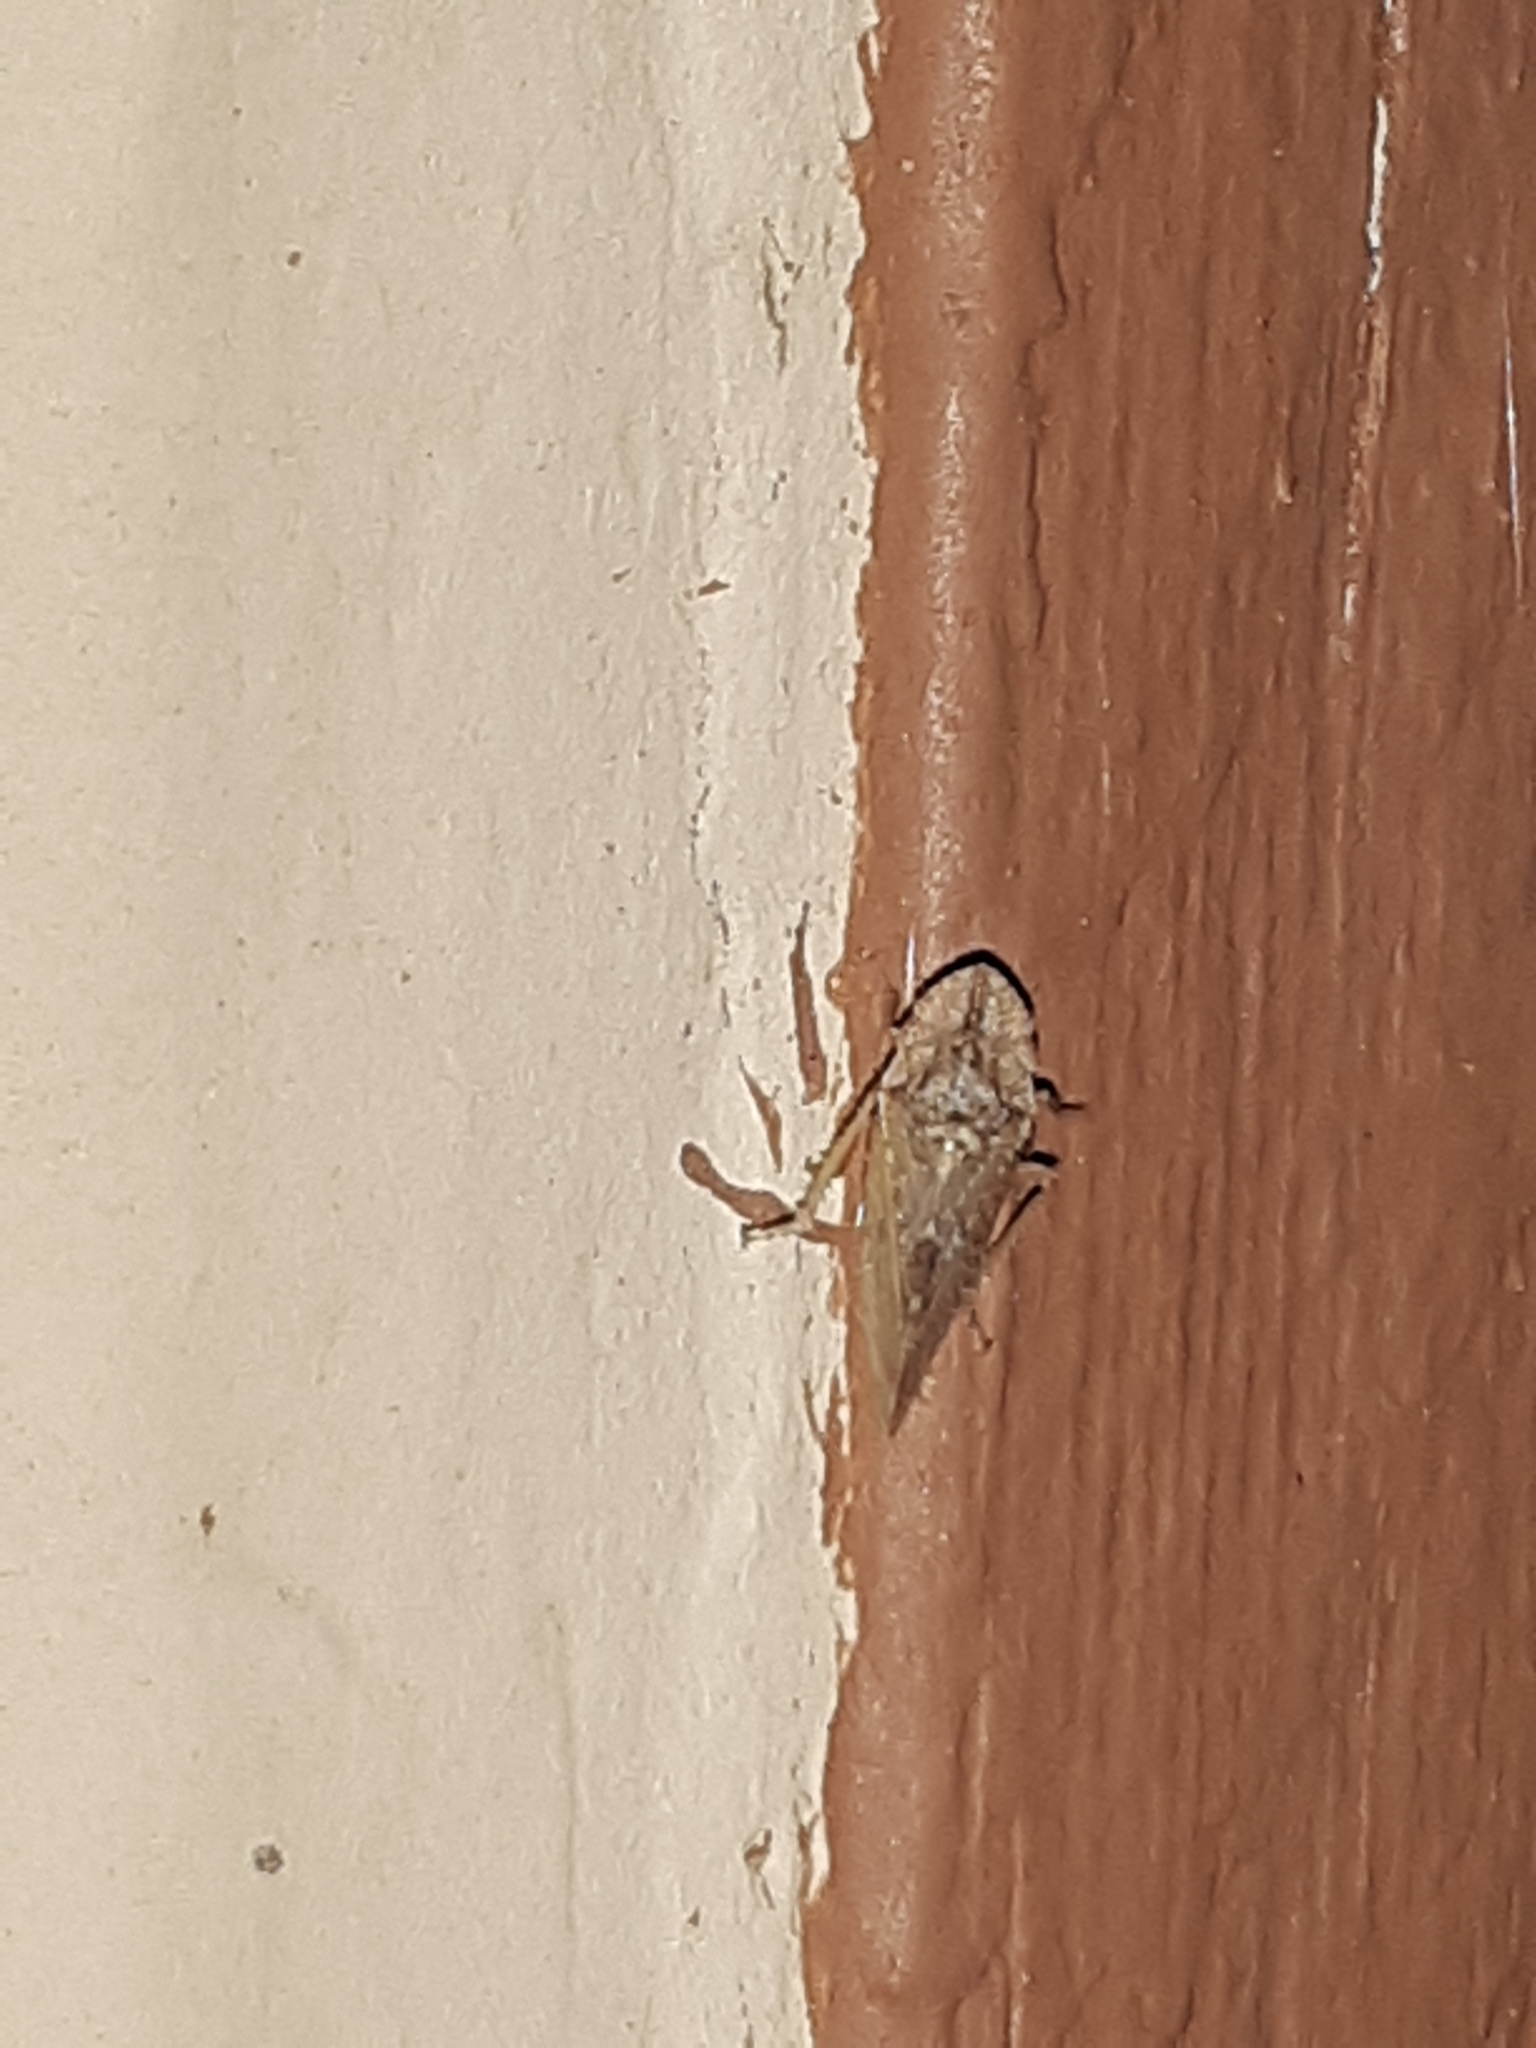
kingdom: Animalia
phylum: Arthropoda
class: Insecta
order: Hemiptera
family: Cicadellidae
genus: Xerophloea
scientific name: Xerophloea peltata
